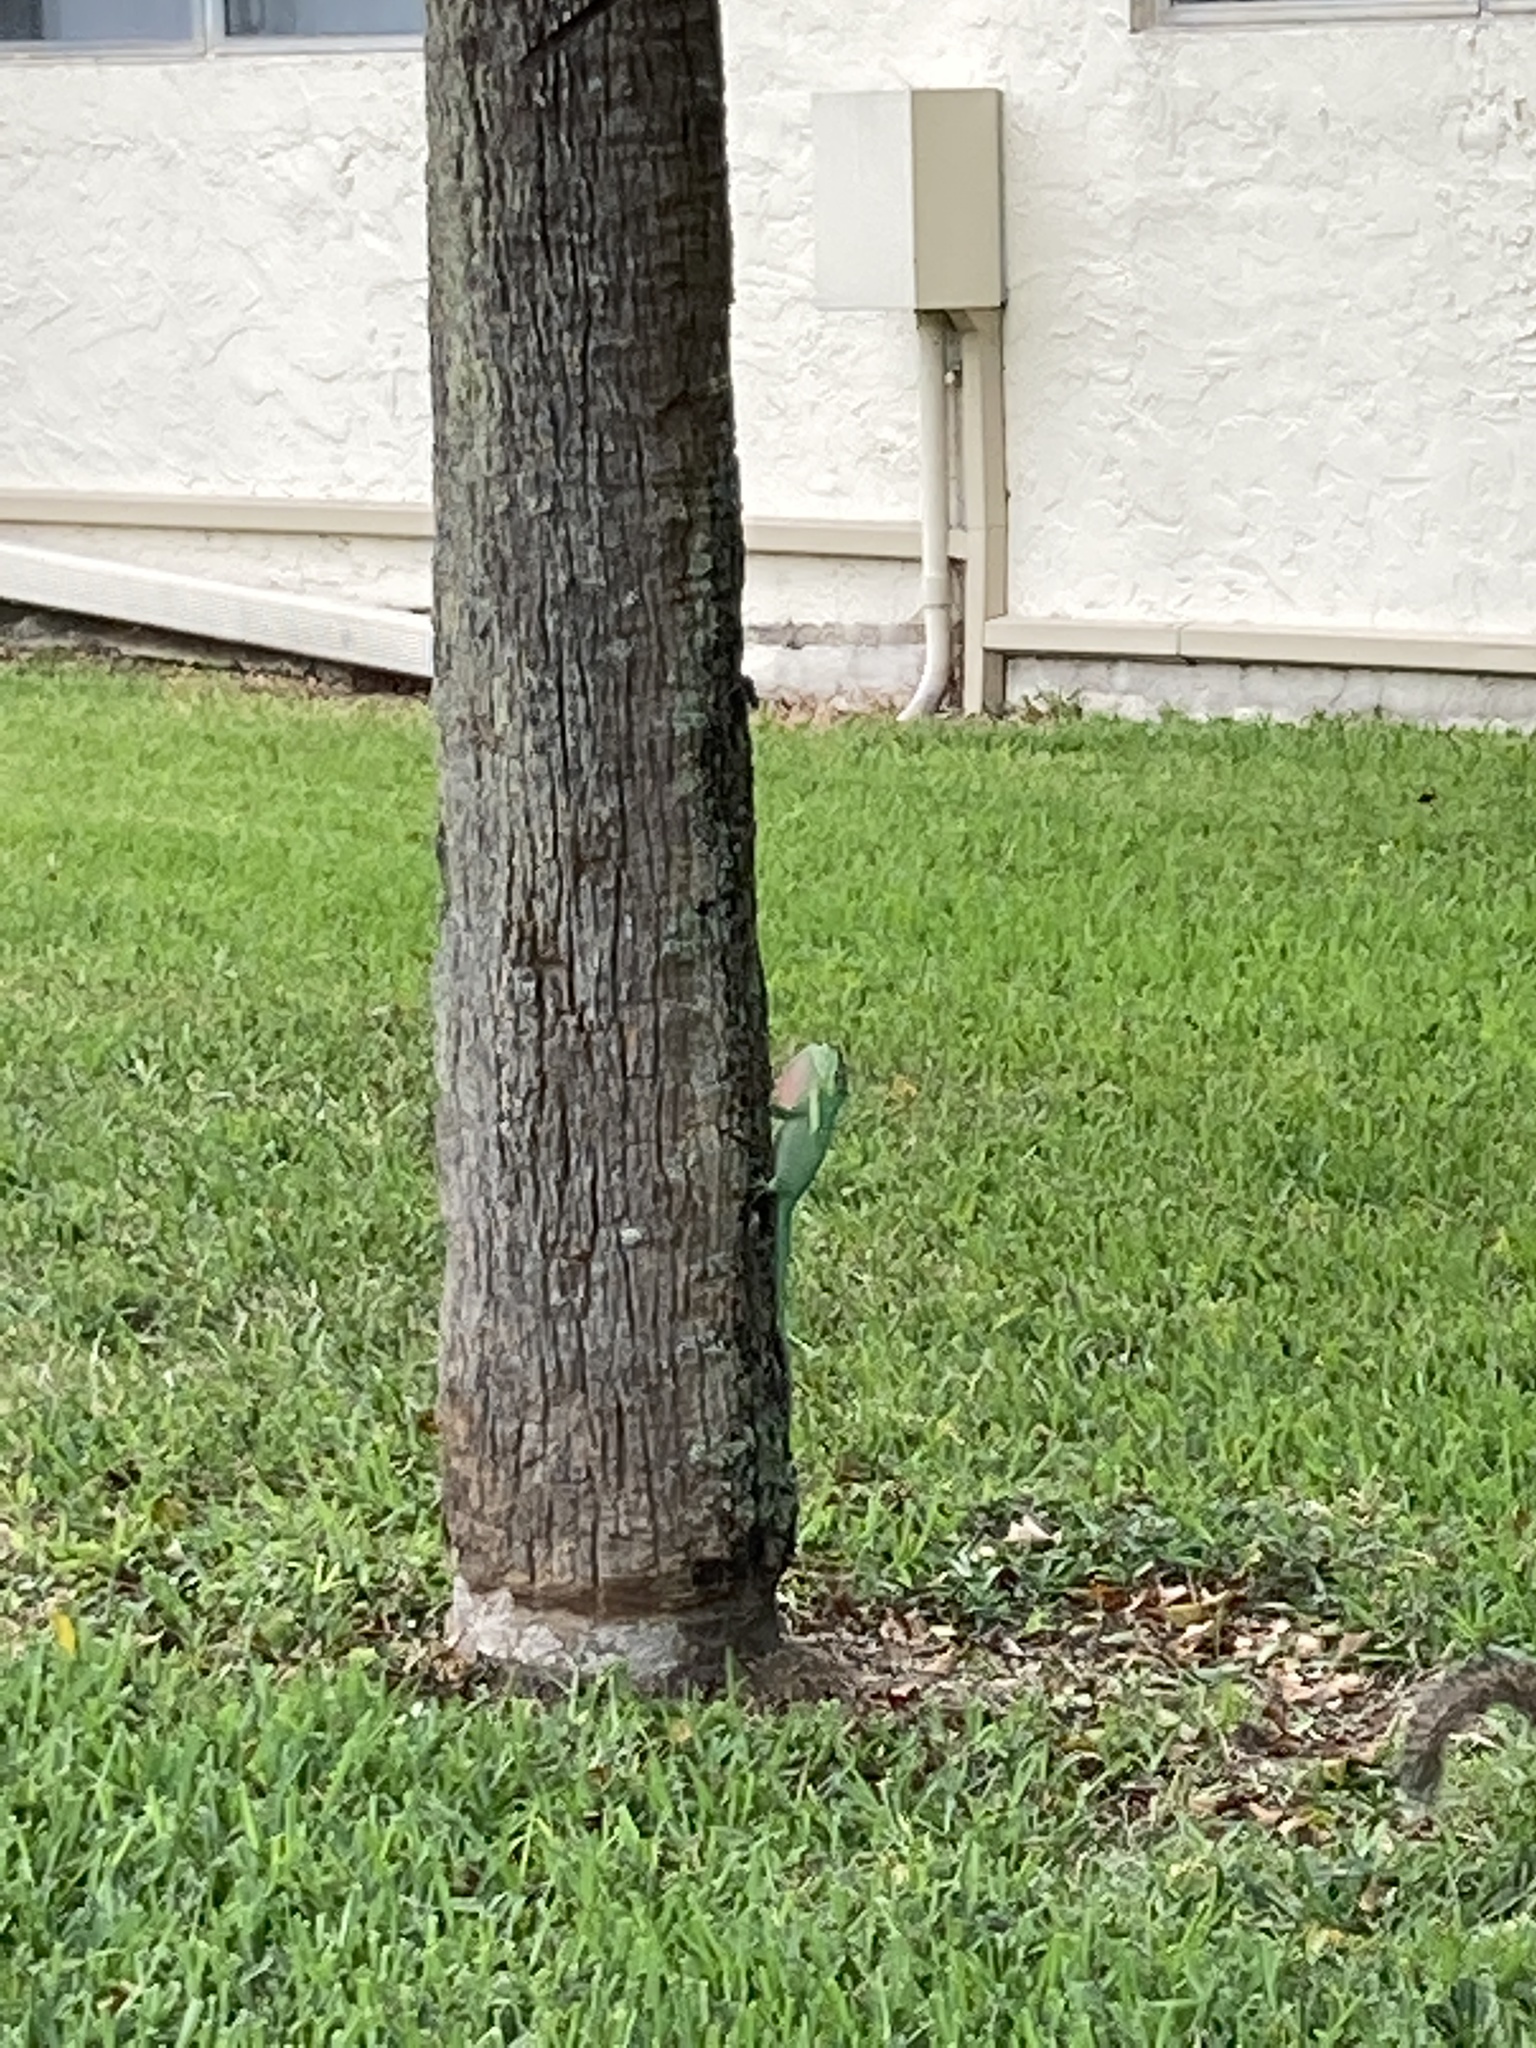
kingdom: Animalia
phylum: Chordata
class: Squamata
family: Dactyloidae
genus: Anolis
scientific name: Anolis equestris
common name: Knight anole
